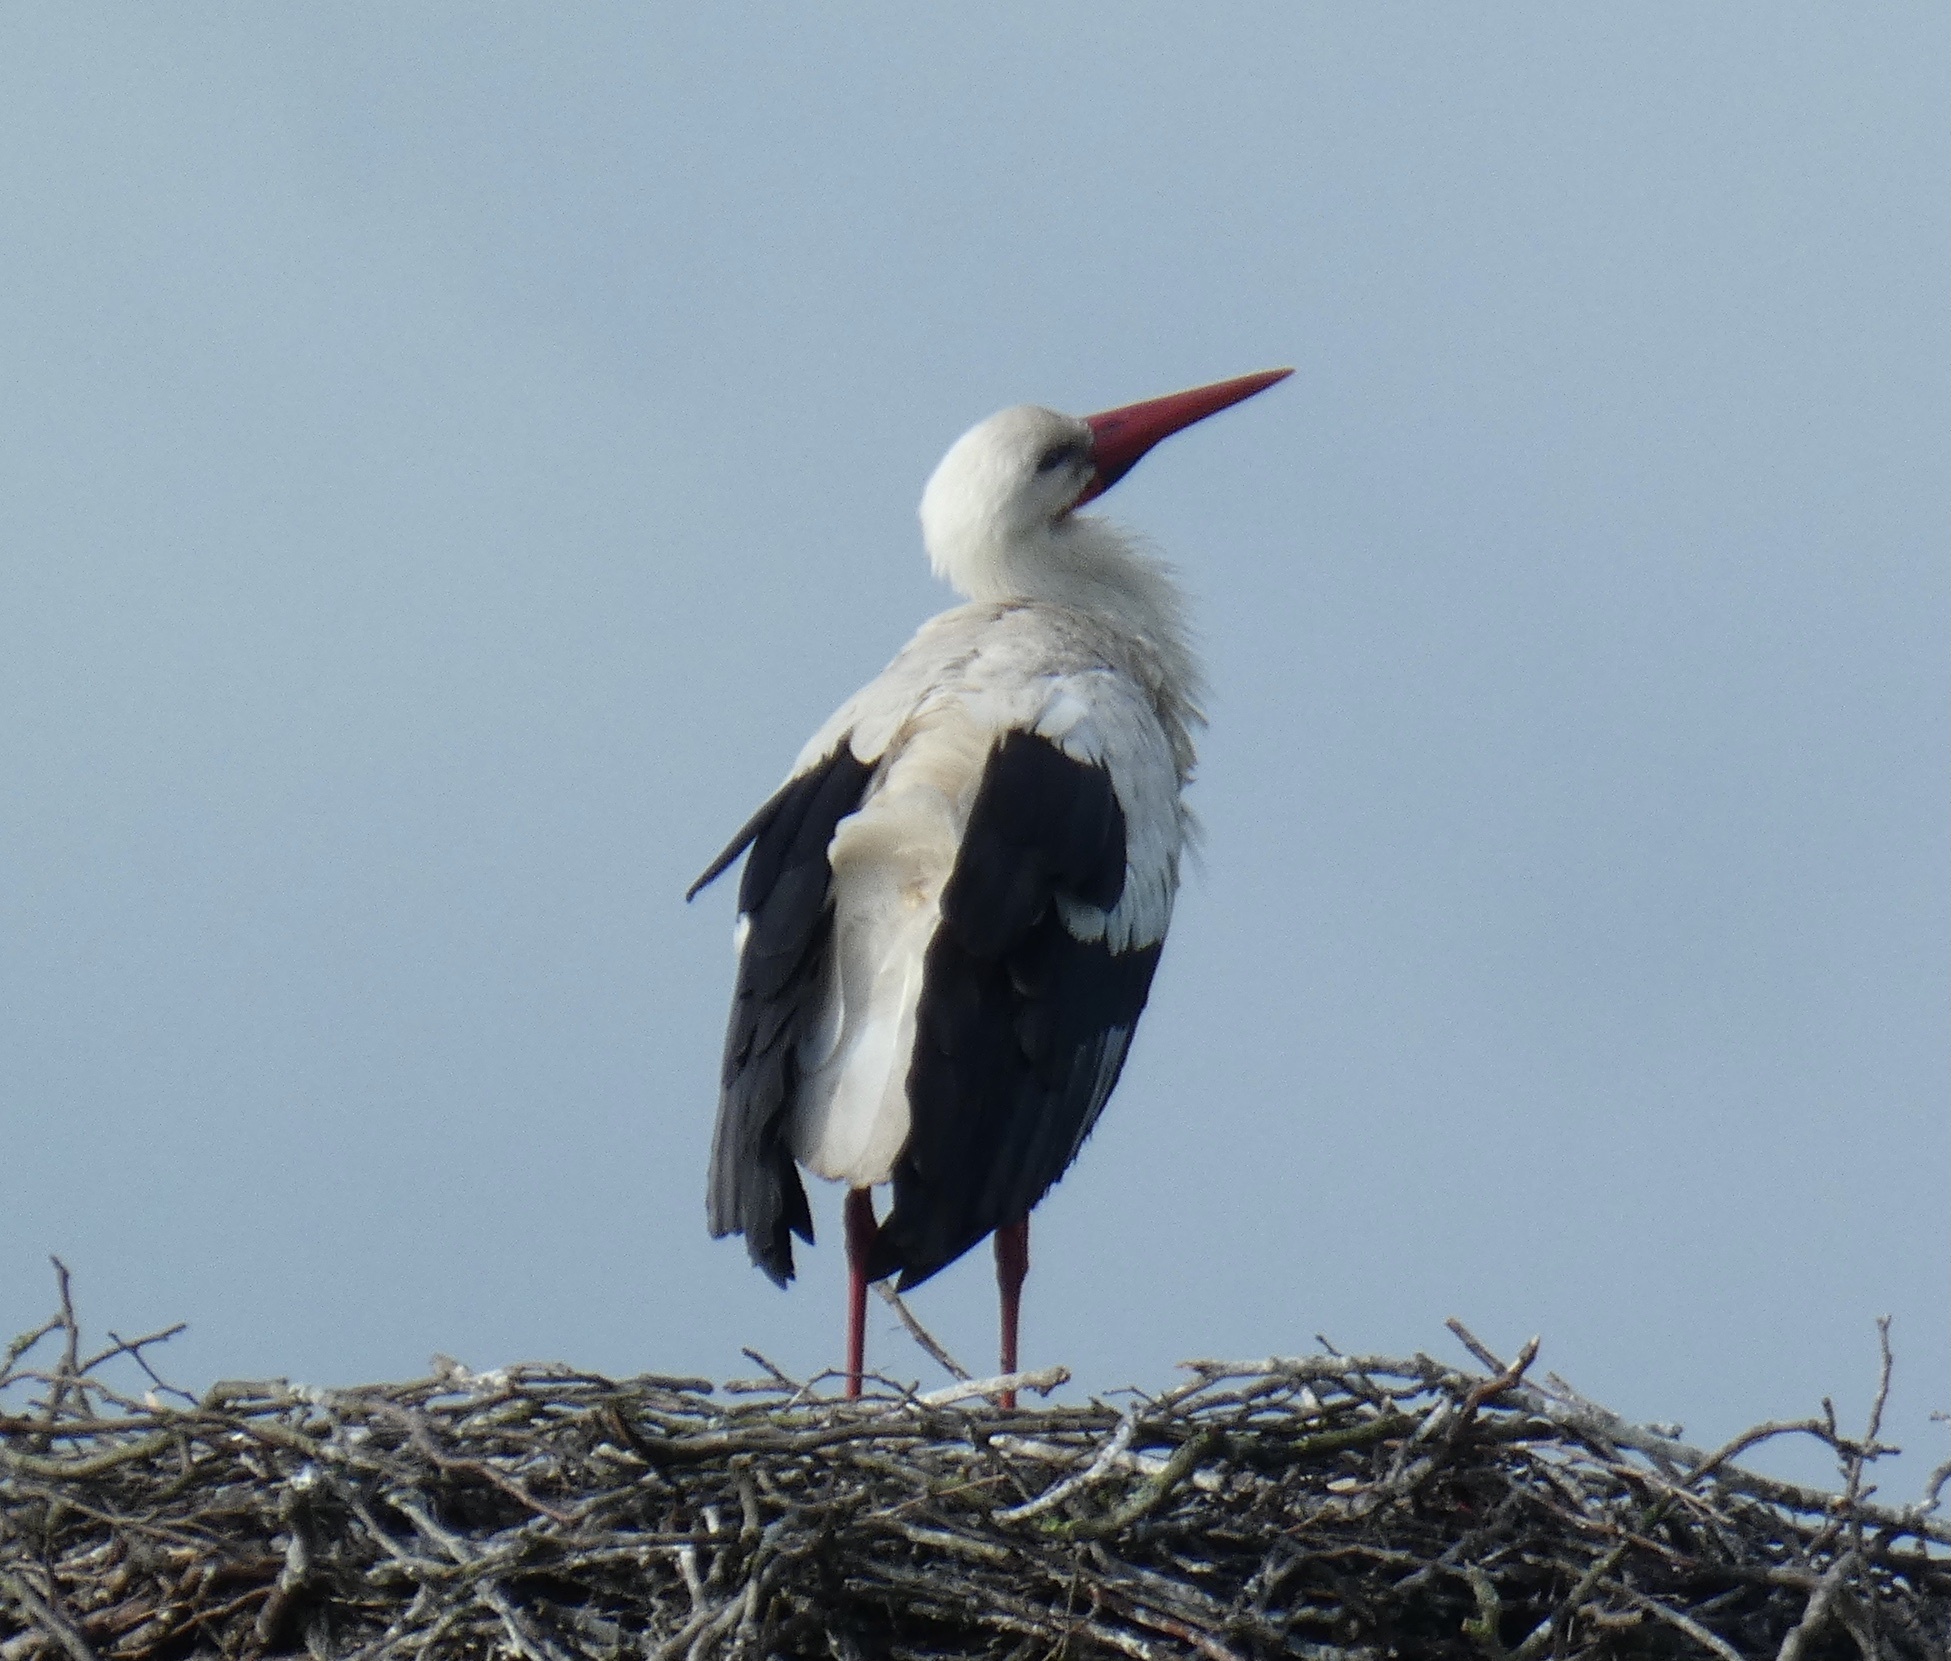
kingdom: Animalia
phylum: Chordata
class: Aves
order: Ciconiiformes
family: Ciconiidae
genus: Ciconia
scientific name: Ciconia ciconia
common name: White stork
